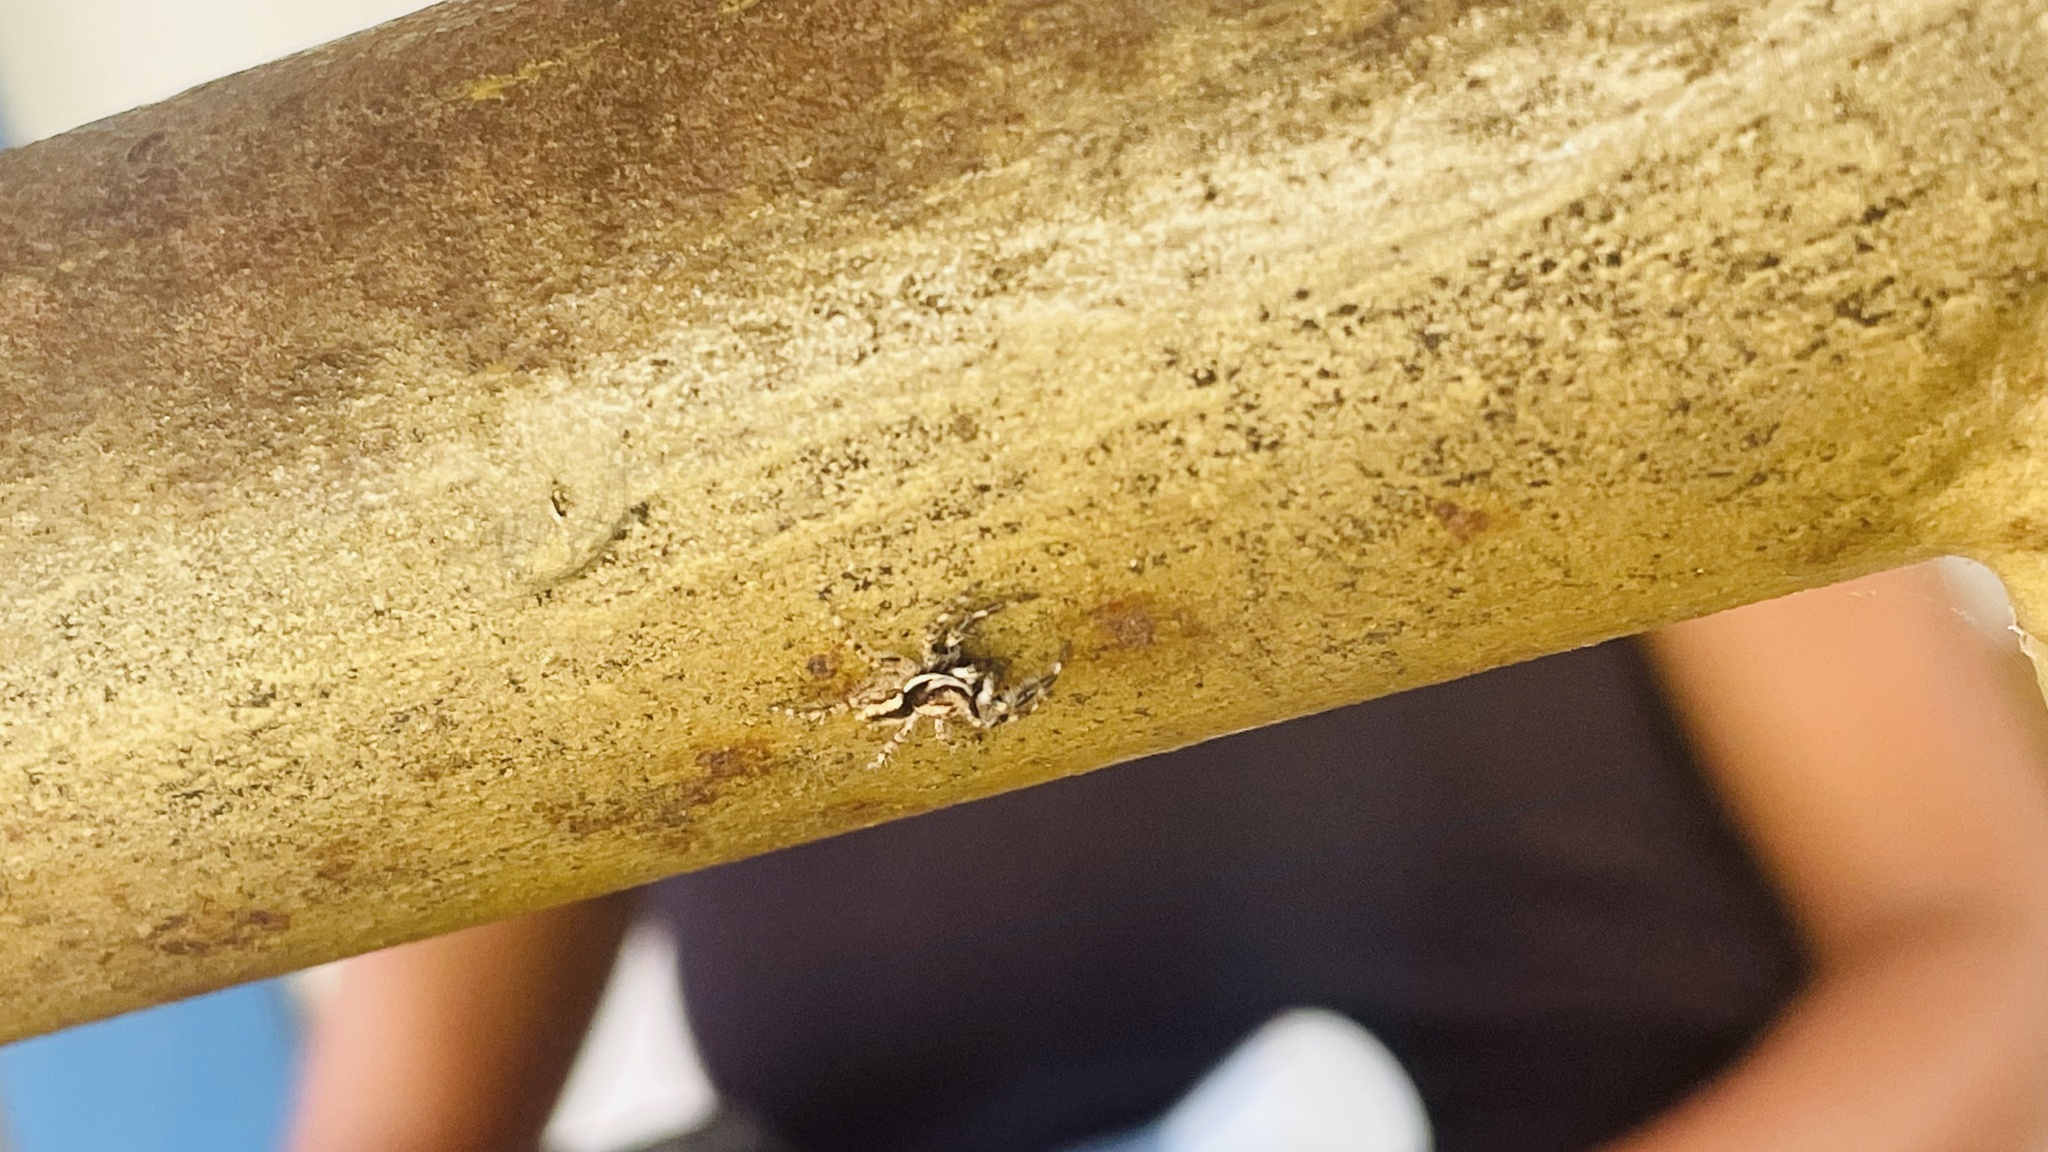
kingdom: Animalia
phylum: Arthropoda
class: Arachnida
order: Araneae
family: Salticidae
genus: Menemerus
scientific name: Menemerus bivittatus
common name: Gray wall jumper
